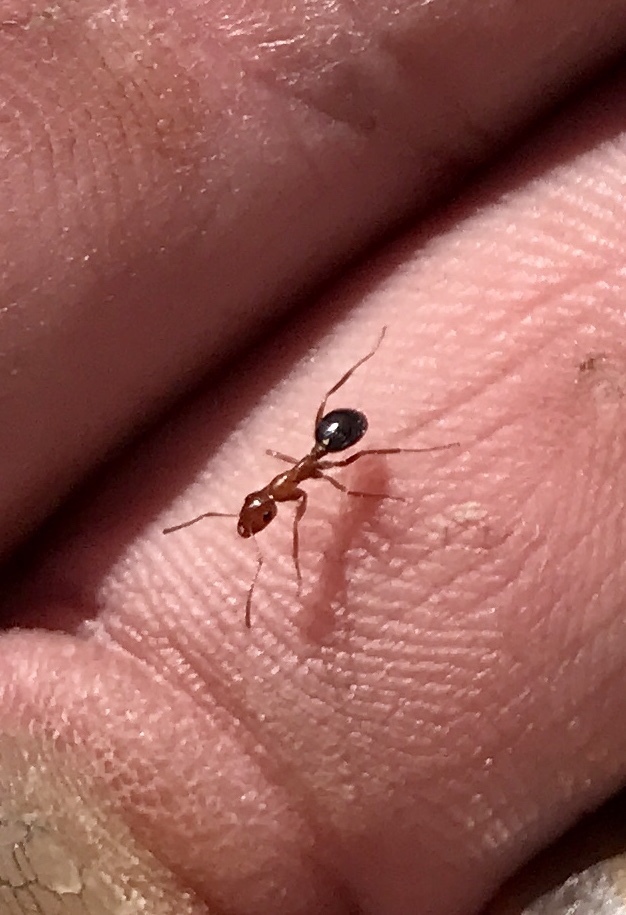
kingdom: Animalia
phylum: Arthropoda
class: Insecta
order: Hymenoptera
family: Formicidae
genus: Formica
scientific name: Formica perpilosa
